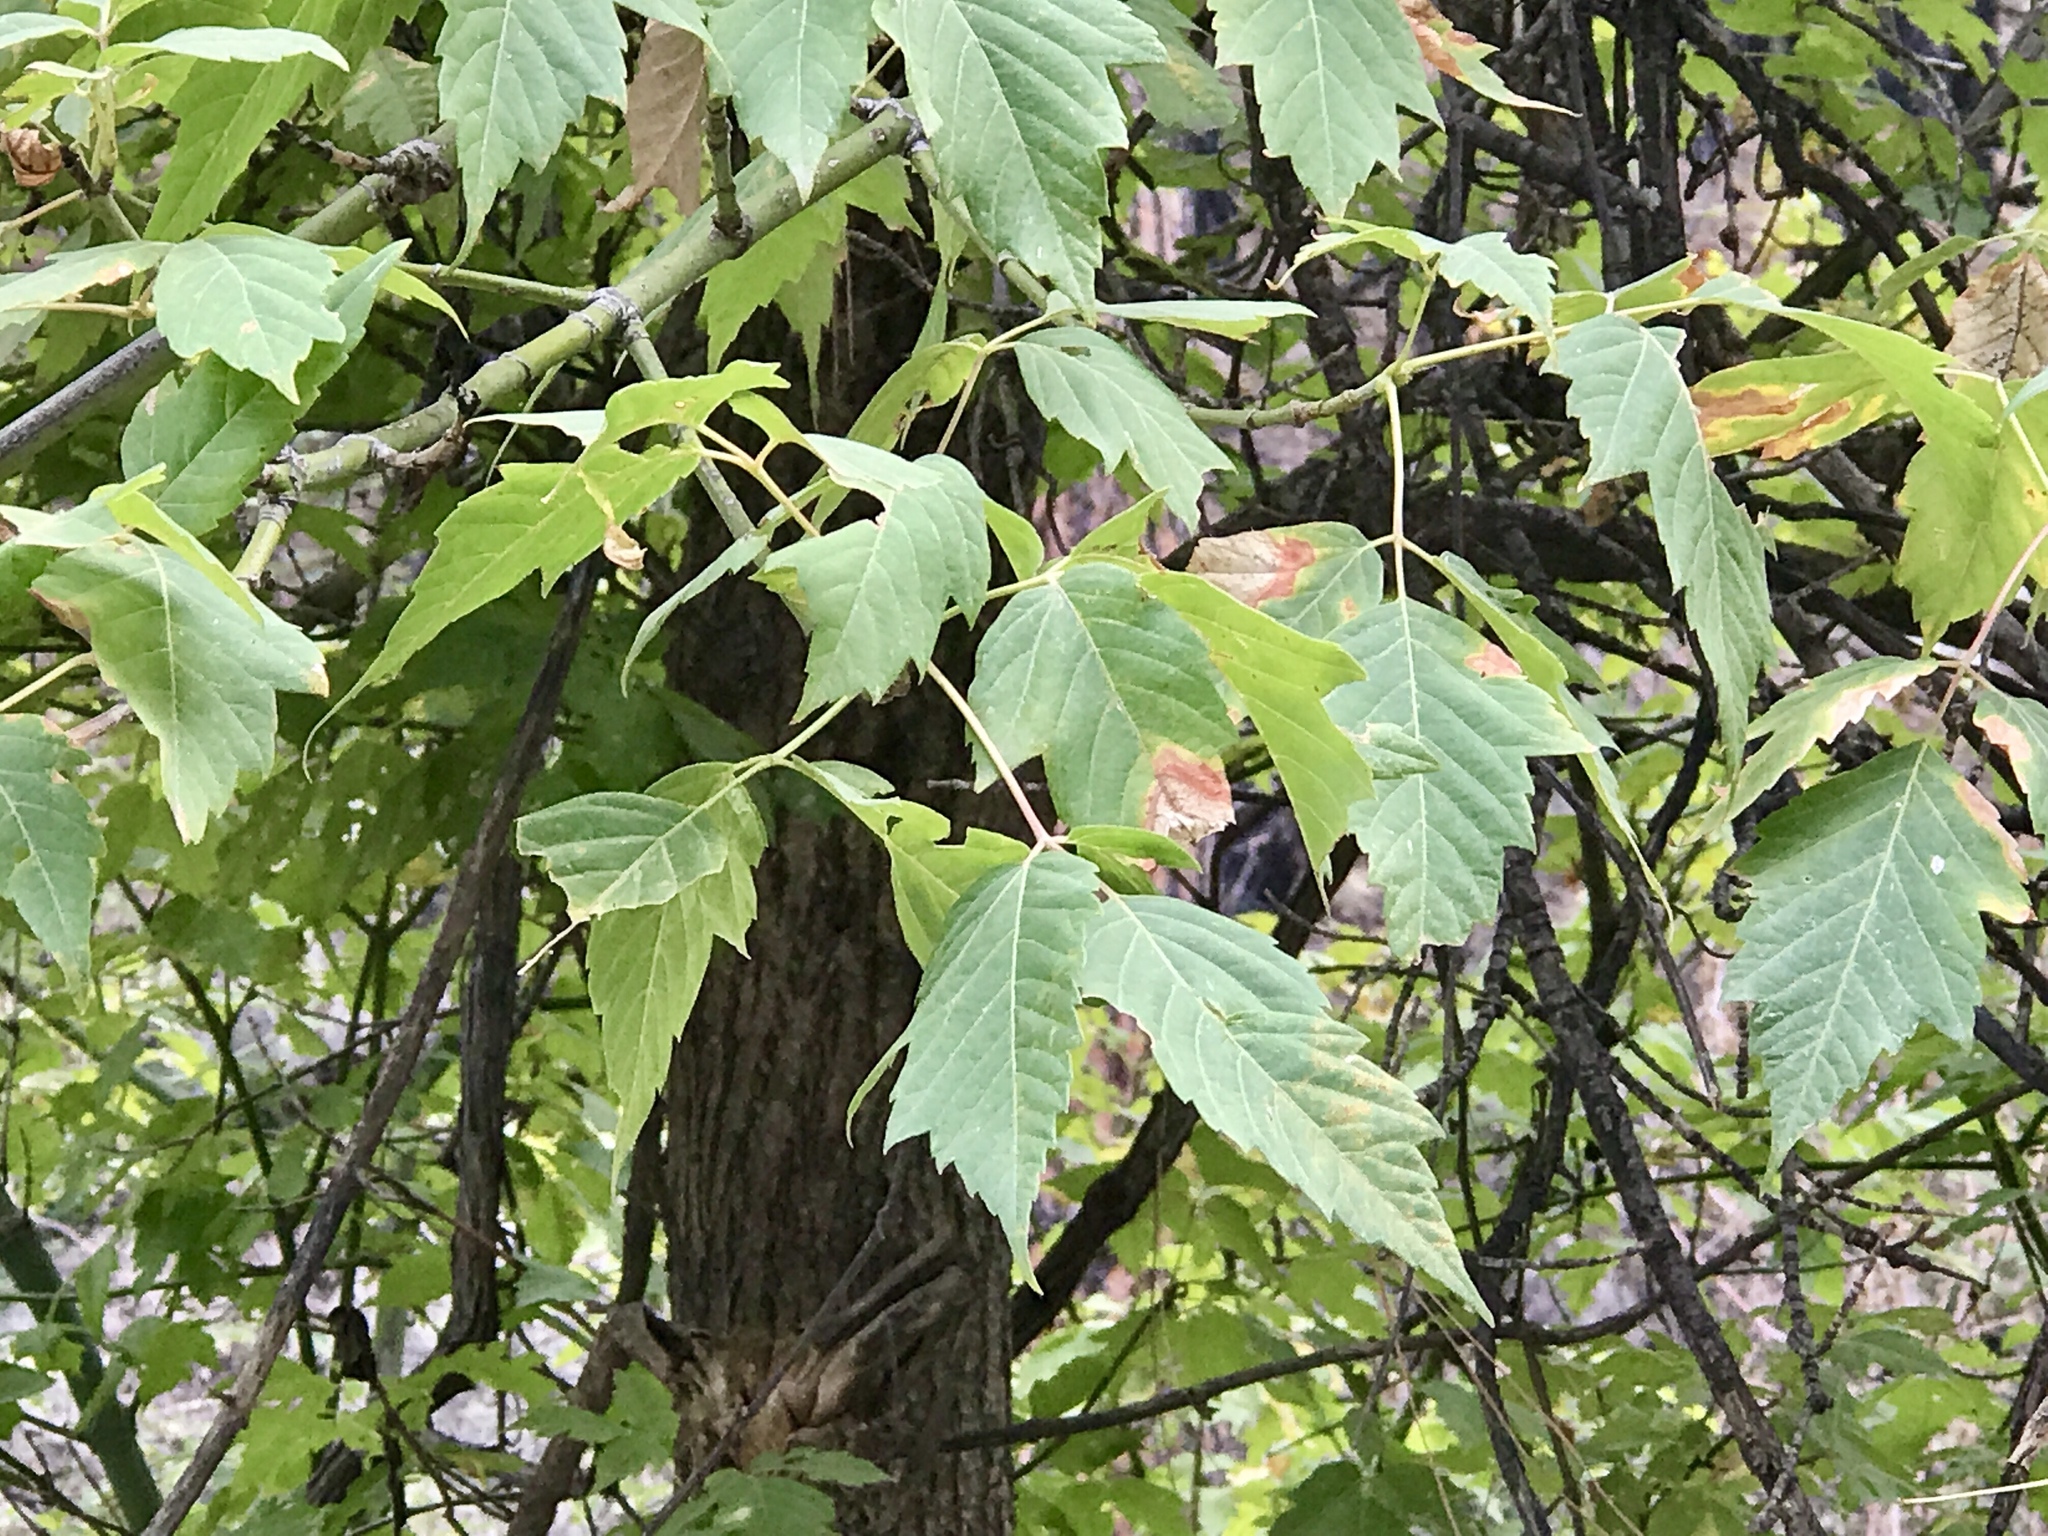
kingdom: Plantae
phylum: Tracheophyta
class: Magnoliopsida
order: Sapindales
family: Sapindaceae
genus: Acer
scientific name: Acer negundo
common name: Ashleaf maple
